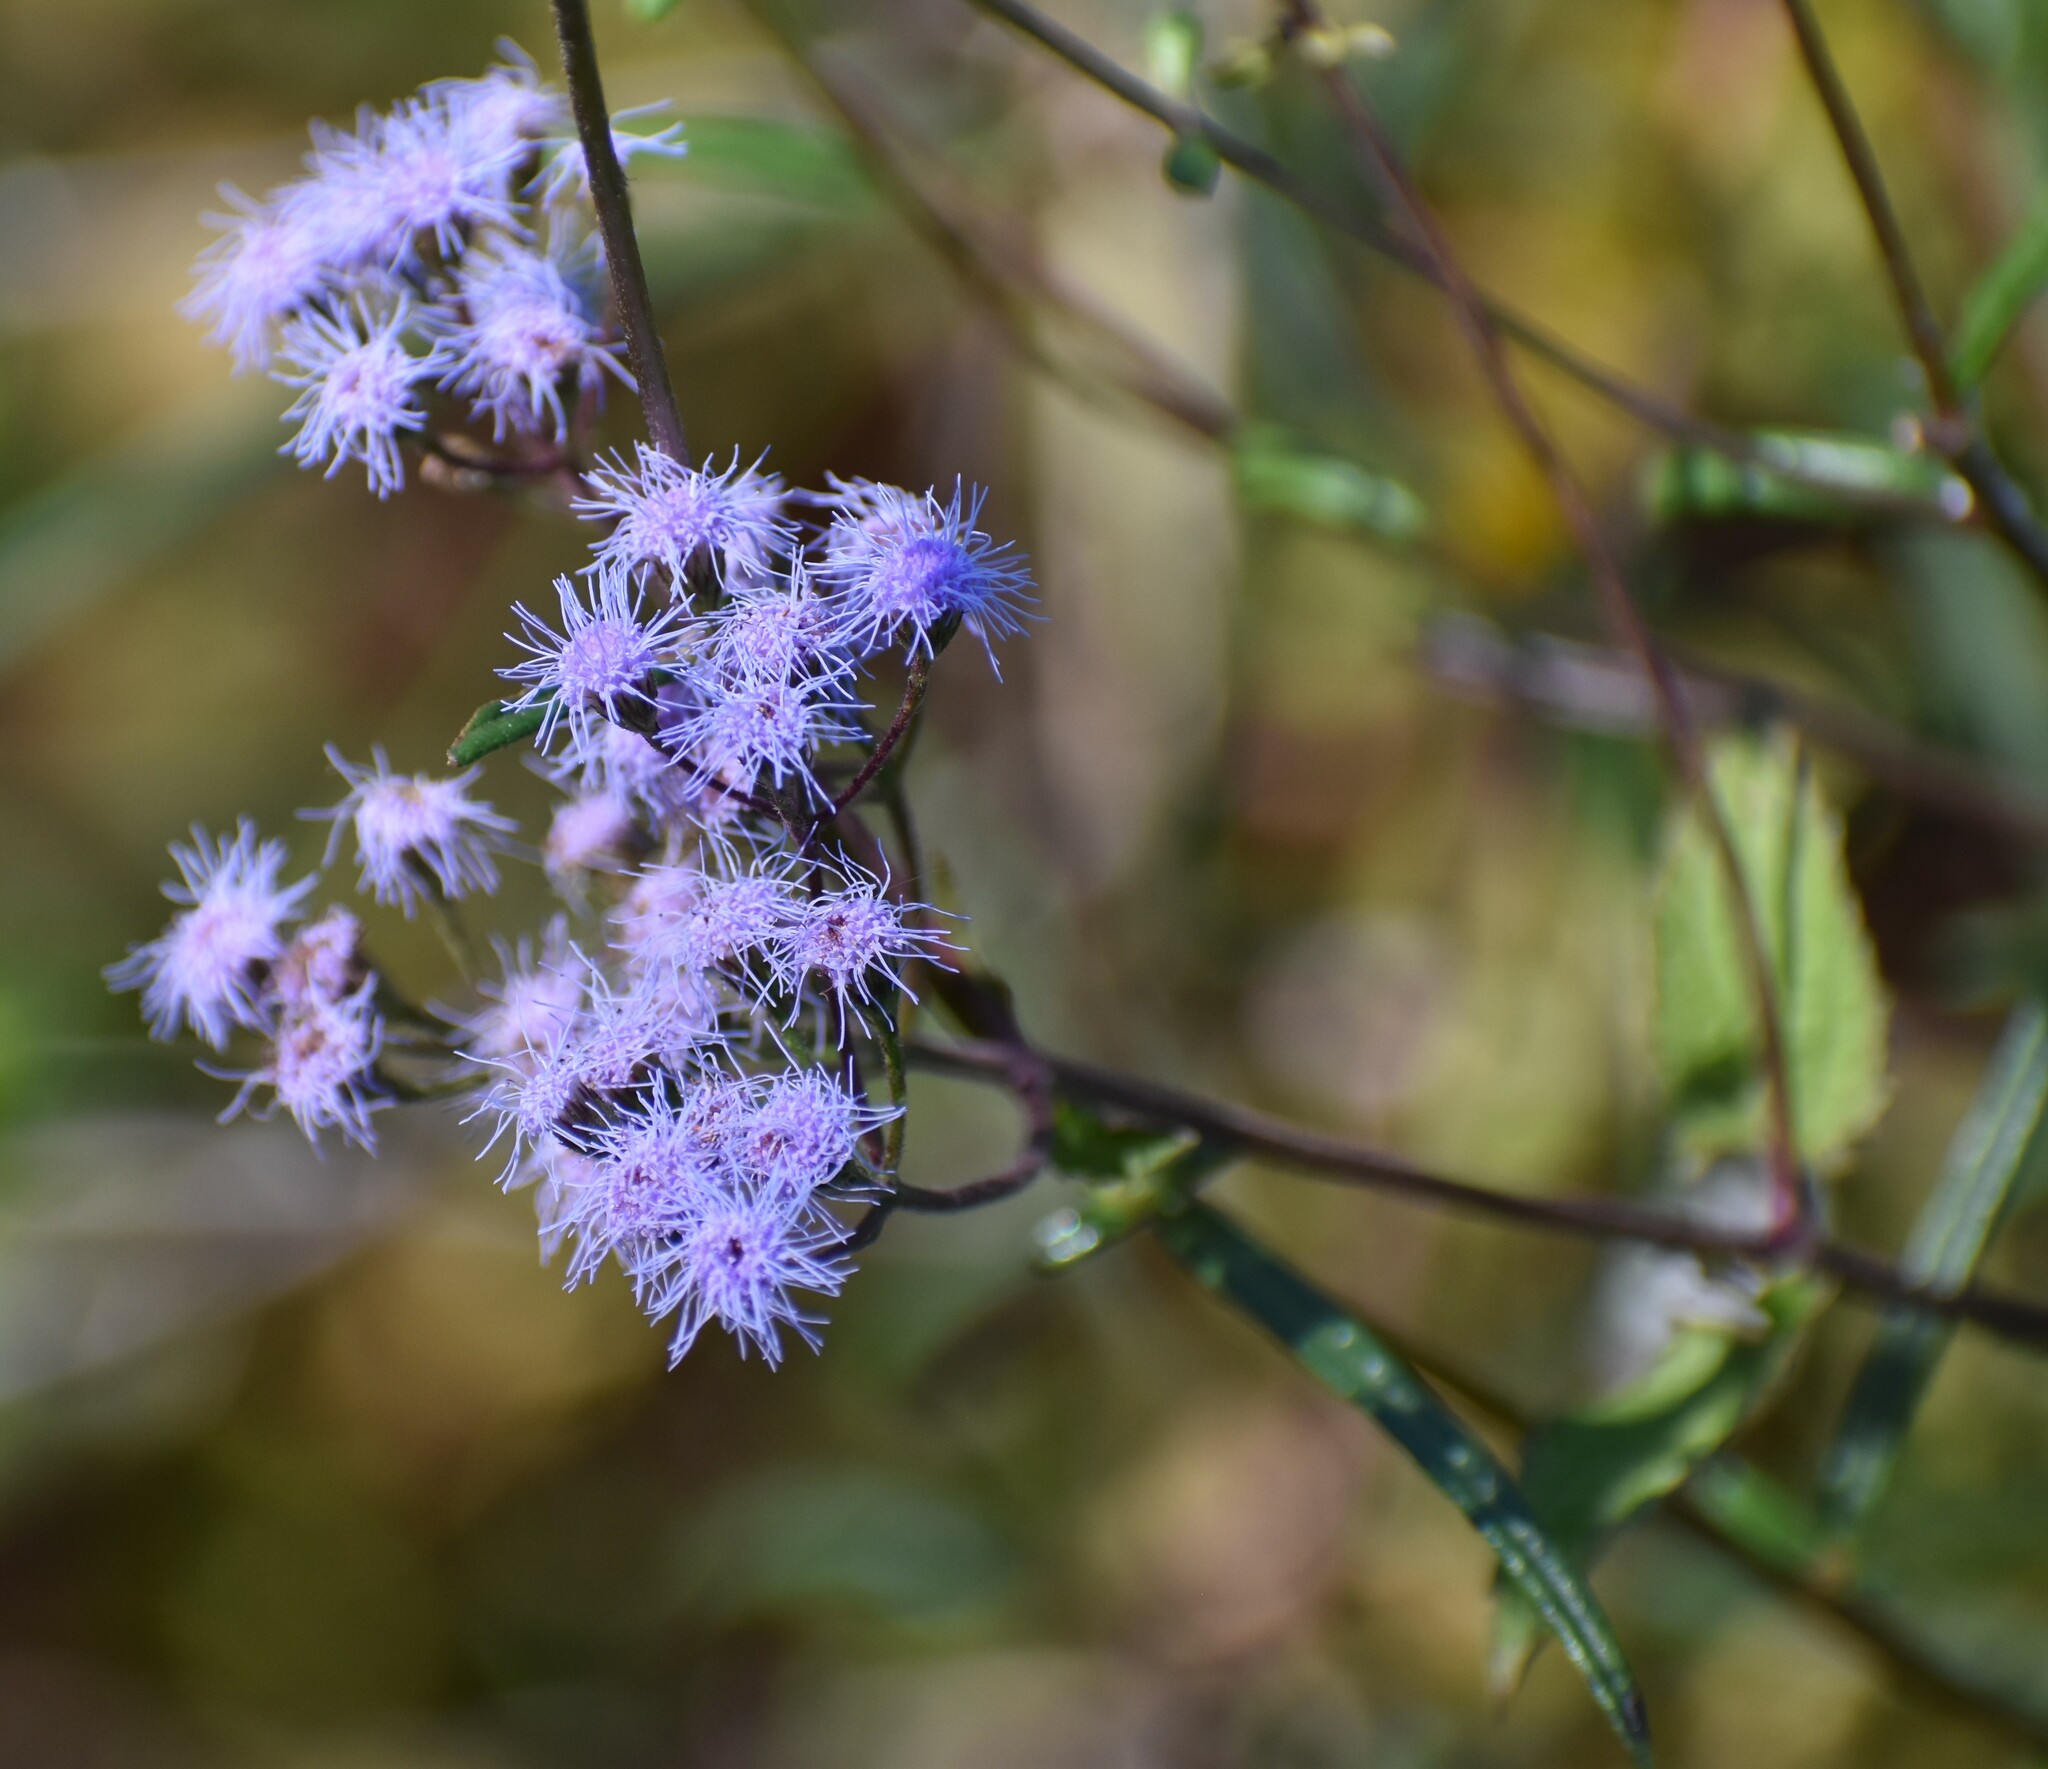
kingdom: Plantae
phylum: Tracheophyta
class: Magnoliopsida
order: Asterales
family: Asteraceae
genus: Conoclinium
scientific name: Conoclinium coelestinum
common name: Blue mistflower
